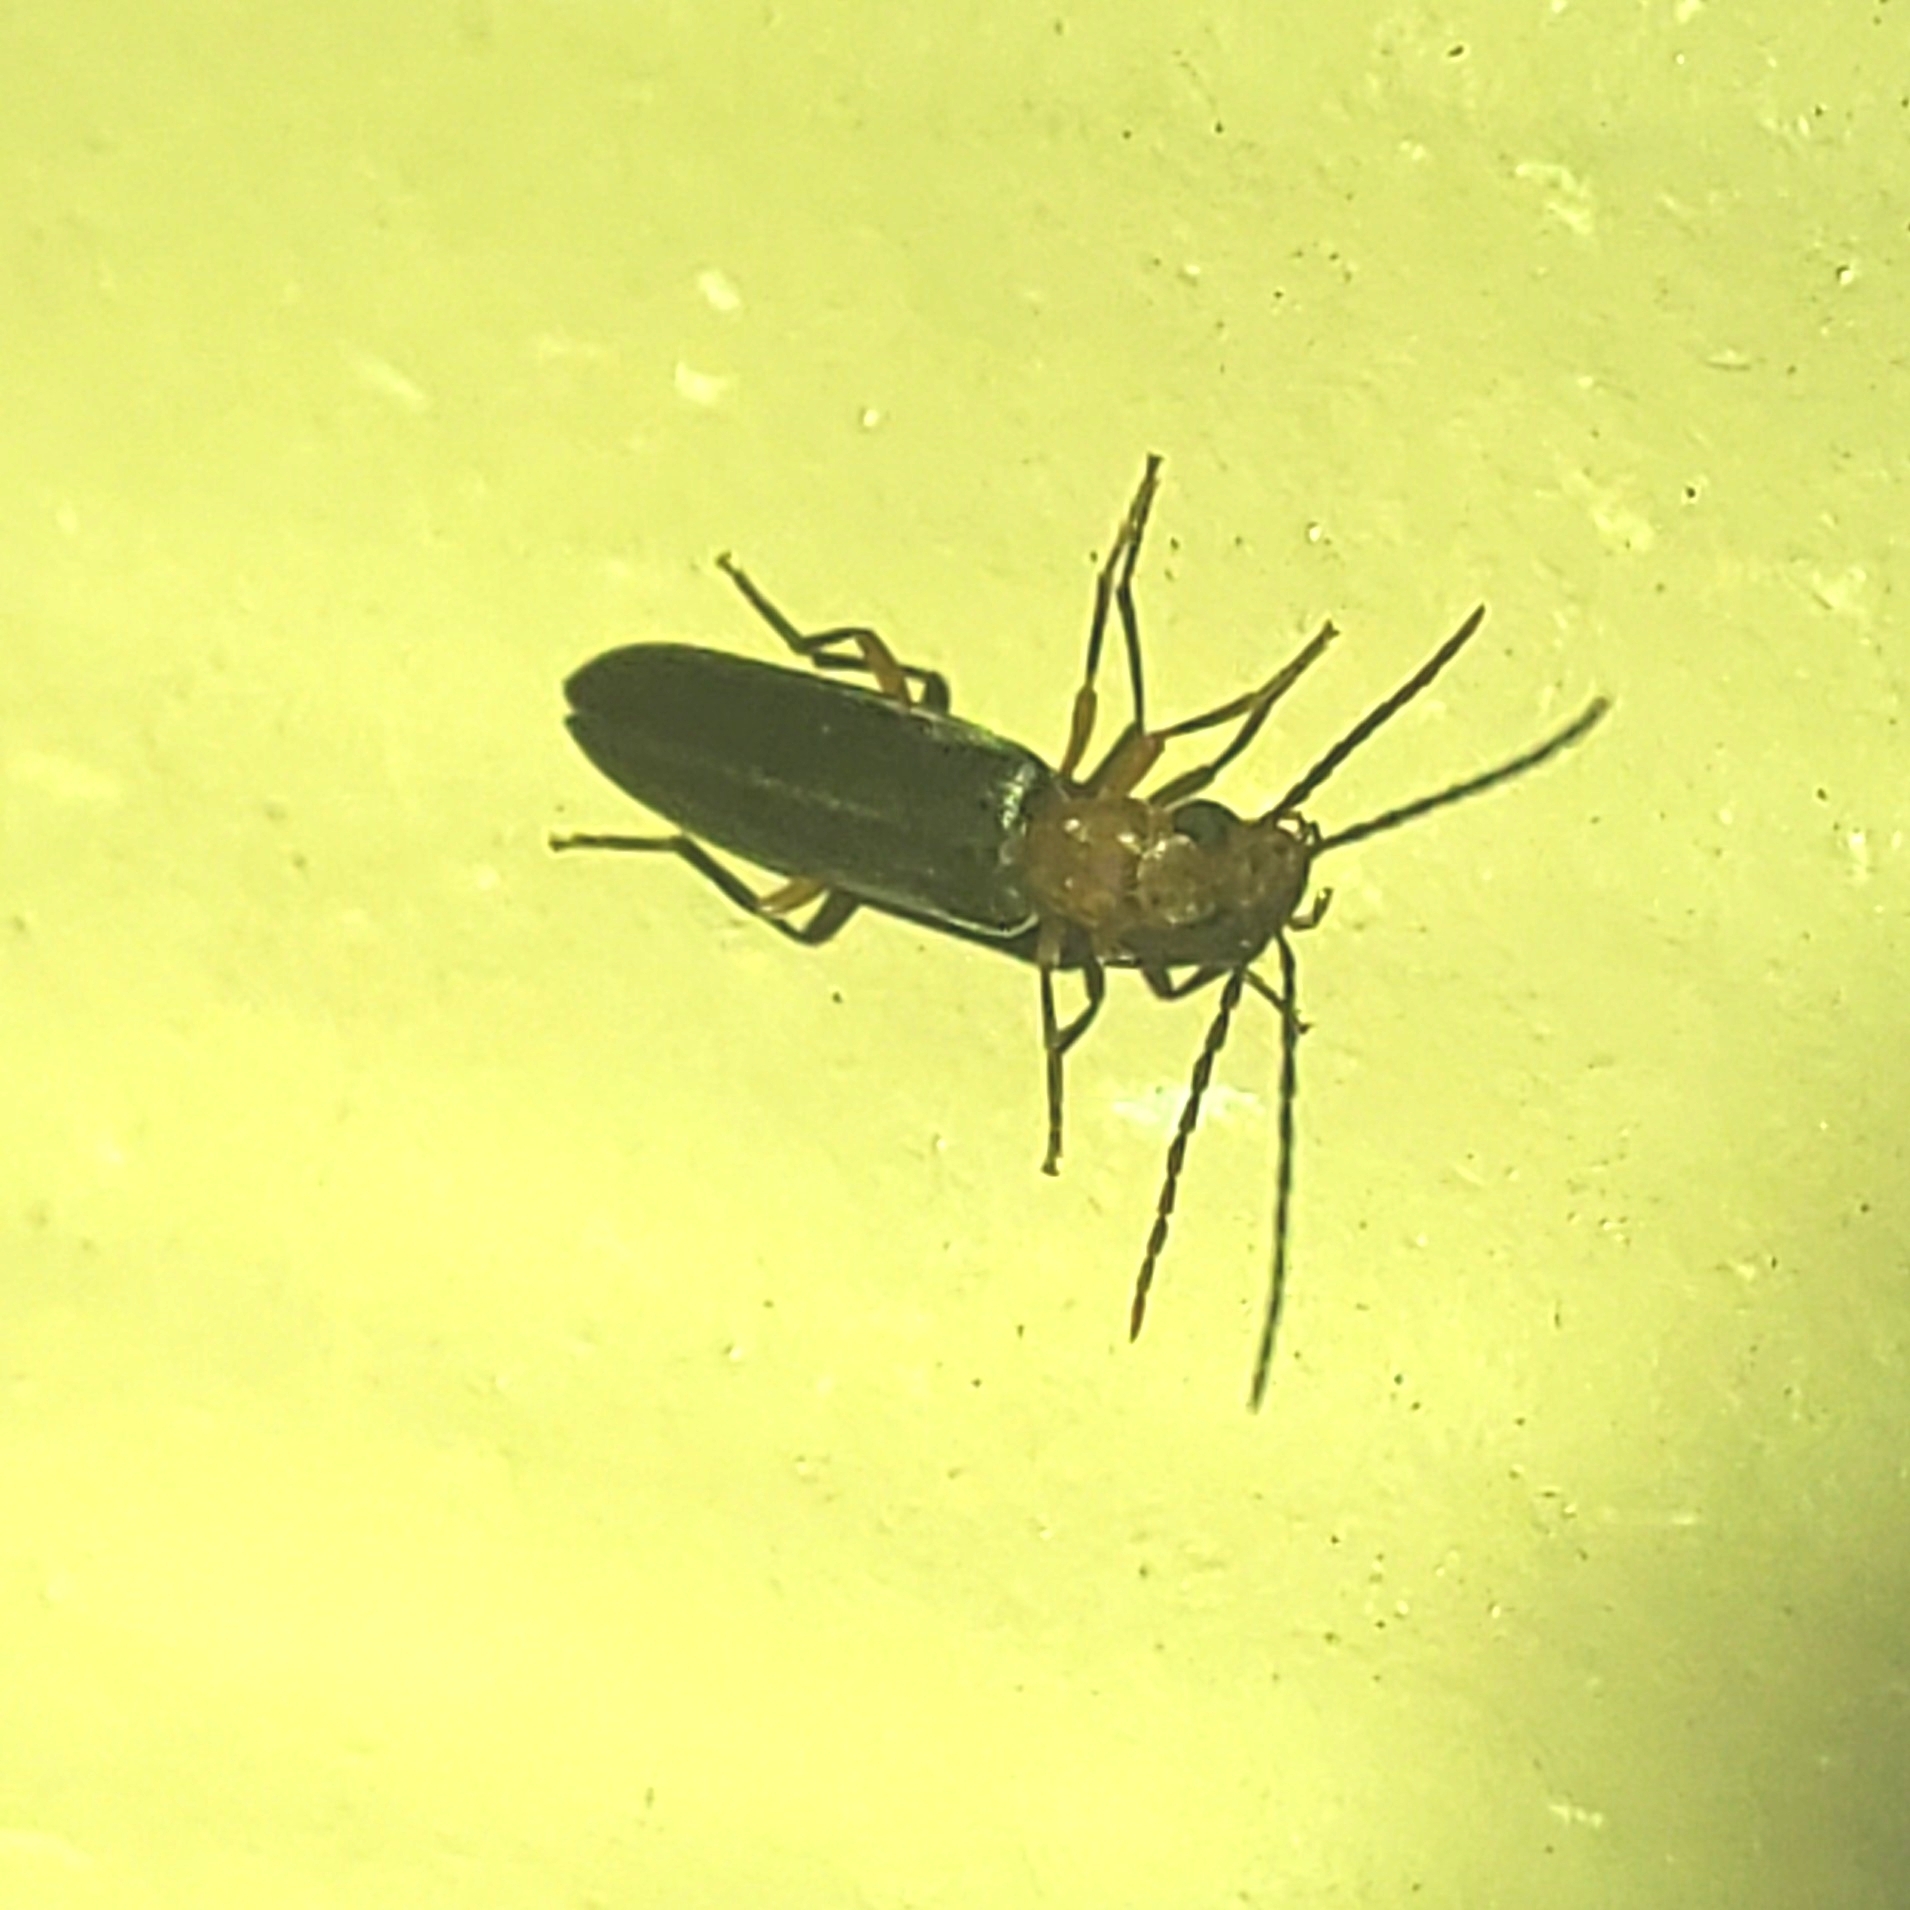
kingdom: Animalia
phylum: Arthropoda
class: Insecta
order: Coleoptera
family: Oedemeridae
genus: Xanthochroina
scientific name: Xanthochroina bicolor
